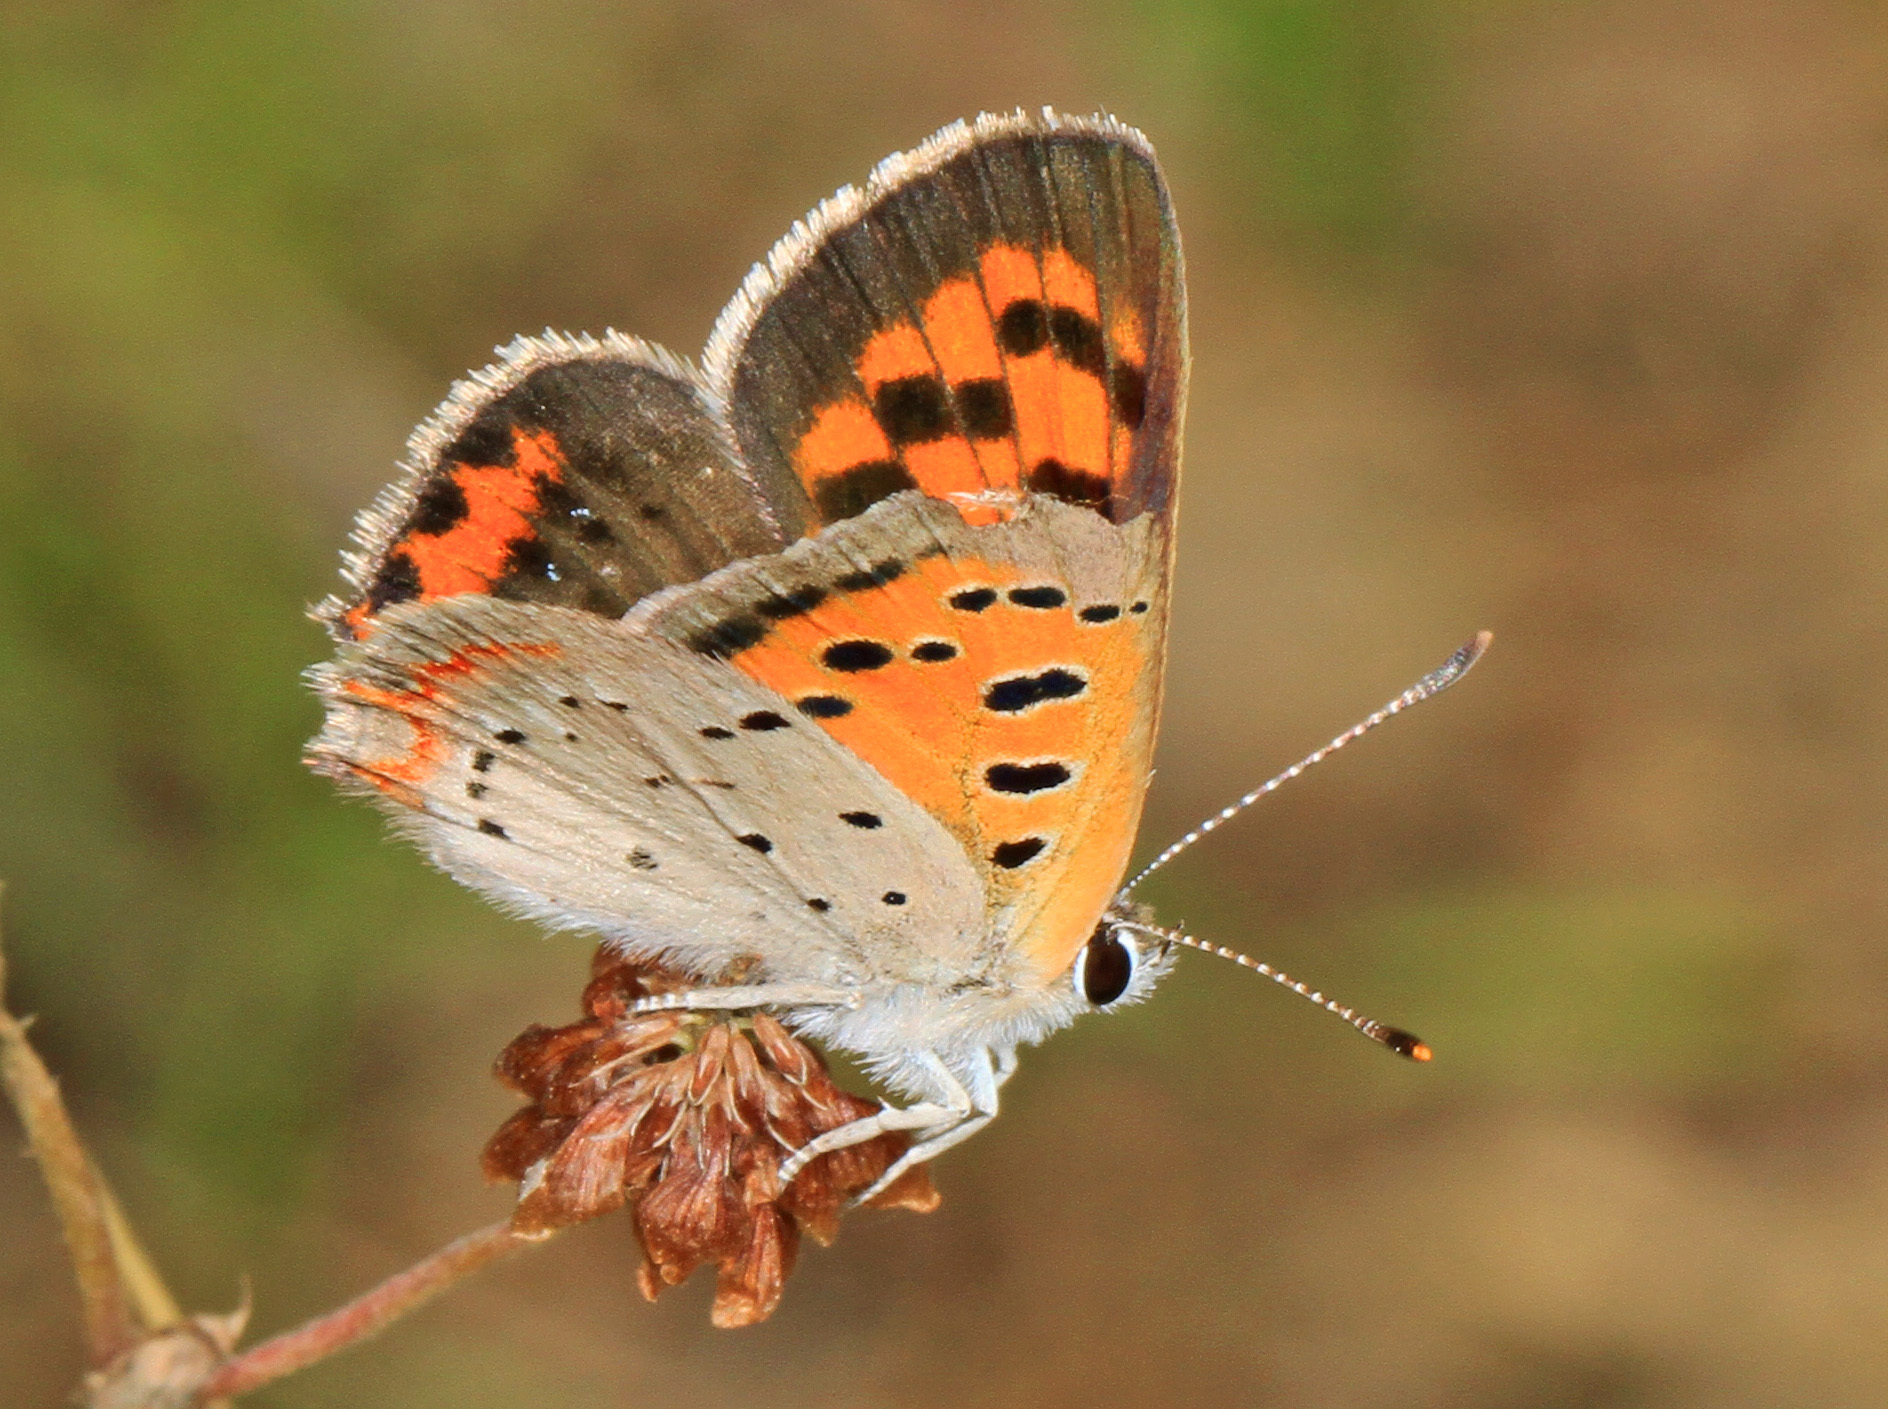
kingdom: Animalia
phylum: Arthropoda
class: Insecta
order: Lepidoptera
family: Lycaenidae
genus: Lycaena
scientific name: Lycaena hypophlaeas
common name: American copper
